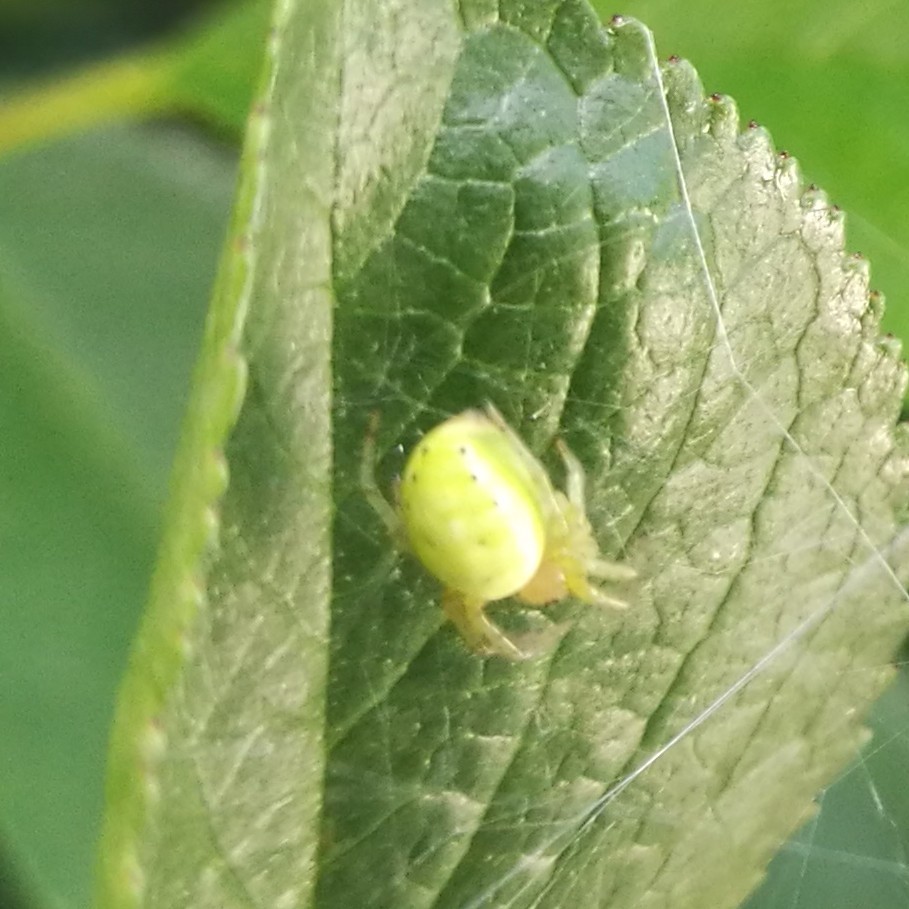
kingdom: Animalia
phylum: Arthropoda
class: Arachnida
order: Araneae
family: Araneidae
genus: Araniella
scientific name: Araniella cucurbitina
